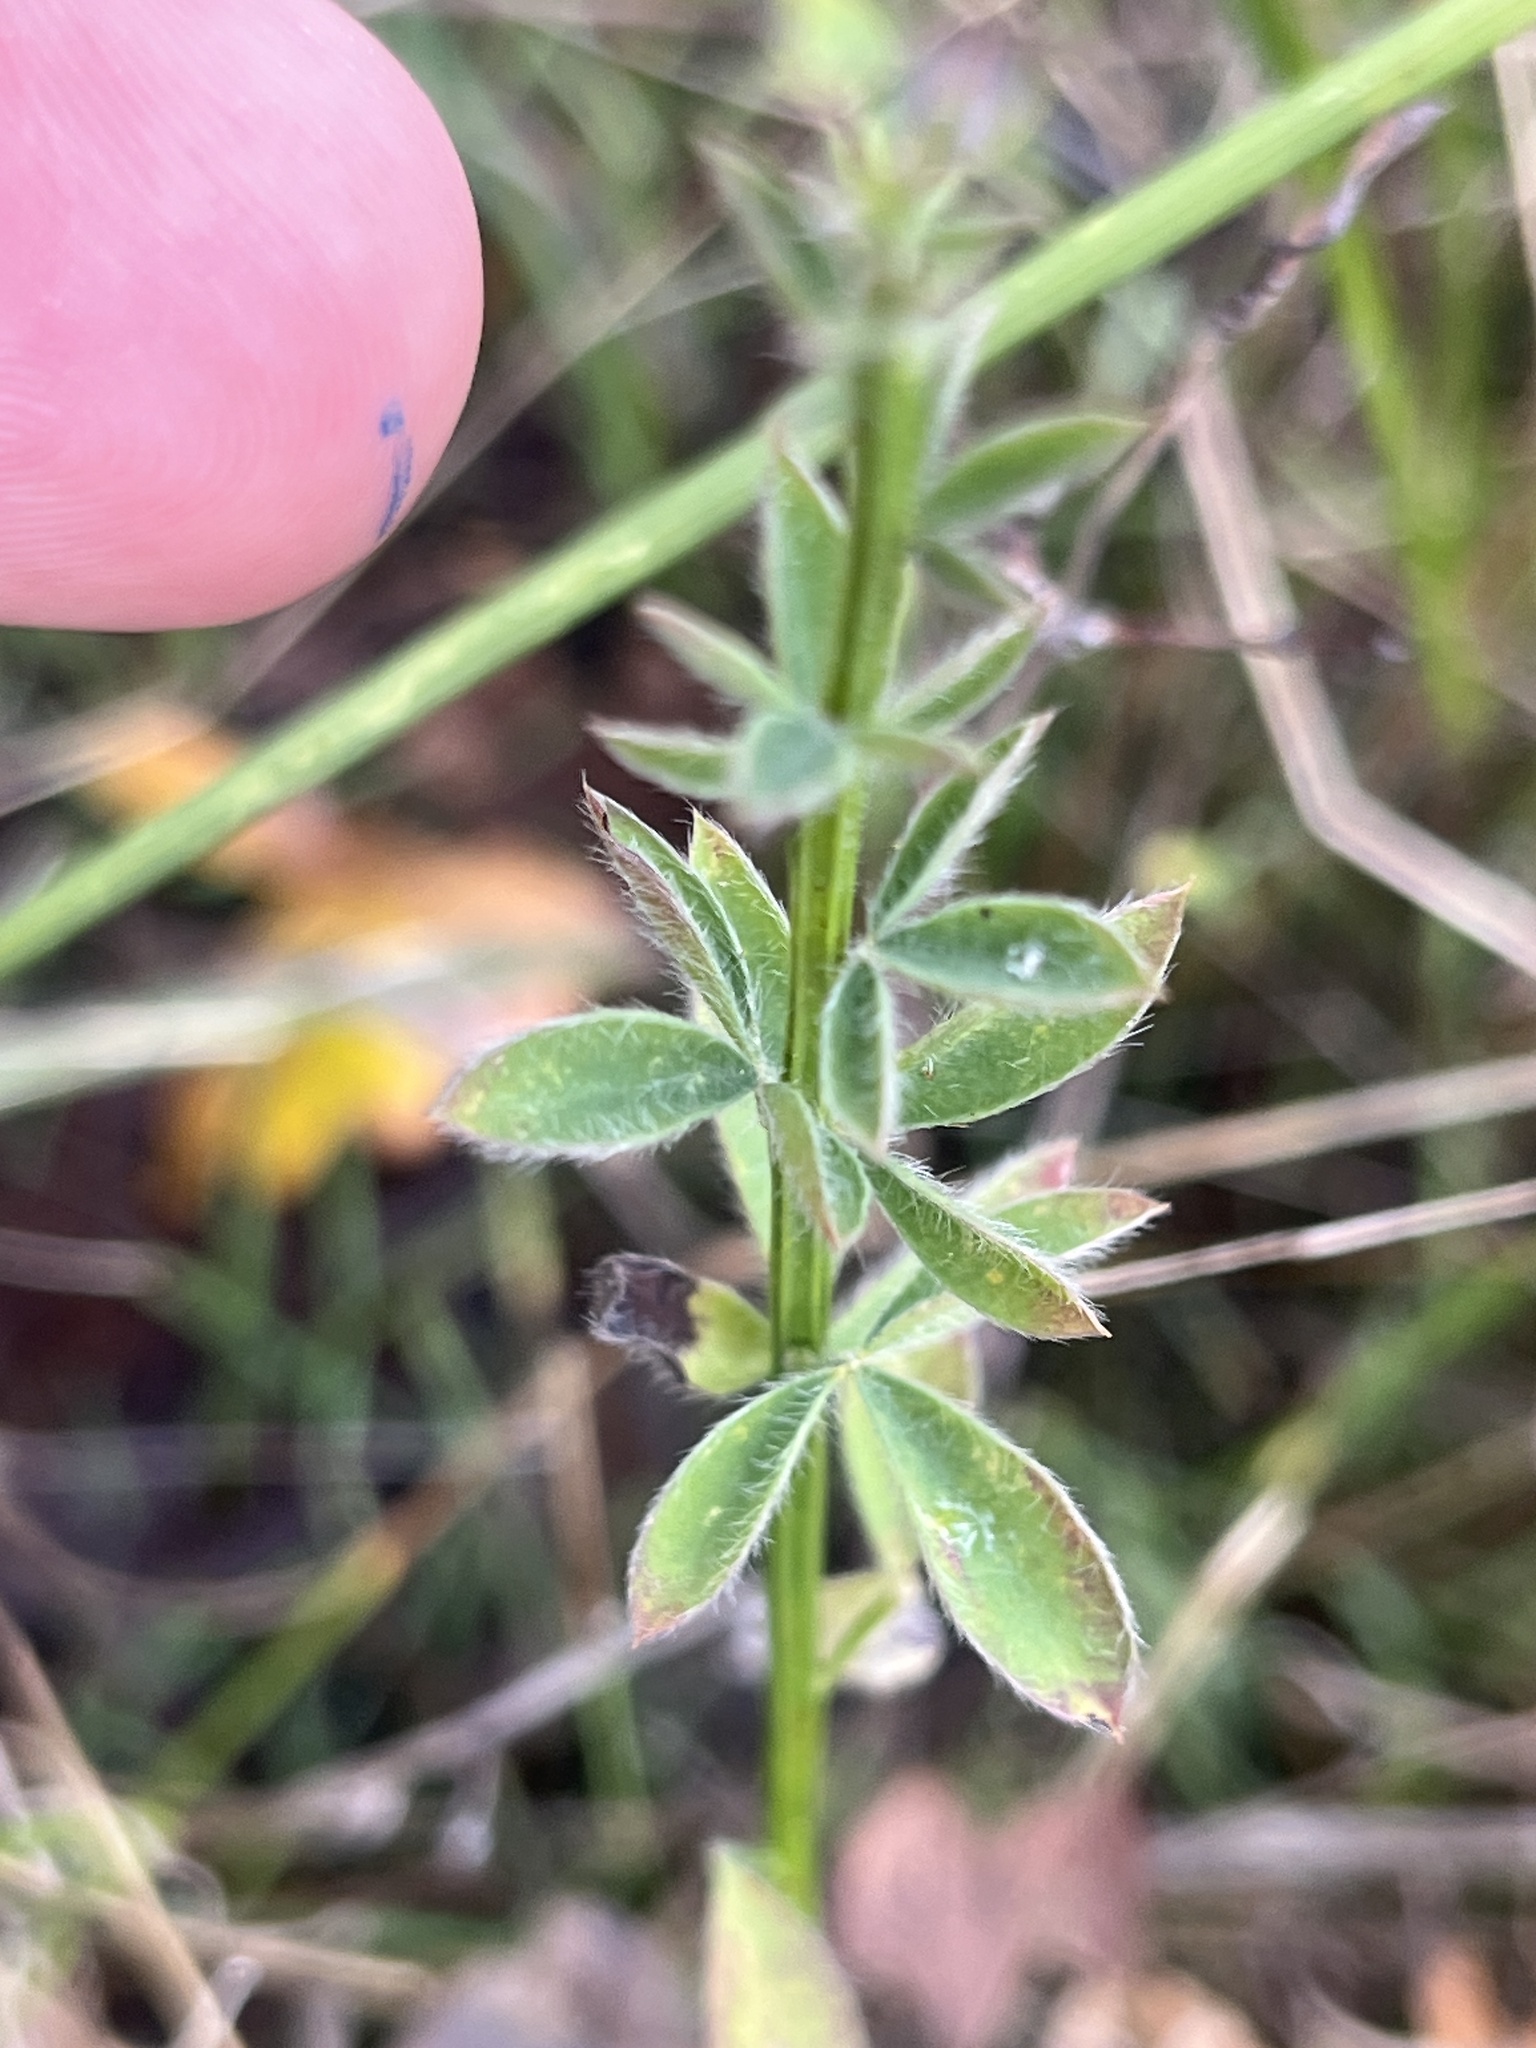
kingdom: Plantae
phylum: Tracheophyta
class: Magnoliopsida
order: Fabales
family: Fabaceae
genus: Cytisus
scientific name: Cytisus scoparius
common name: Scotch broom
